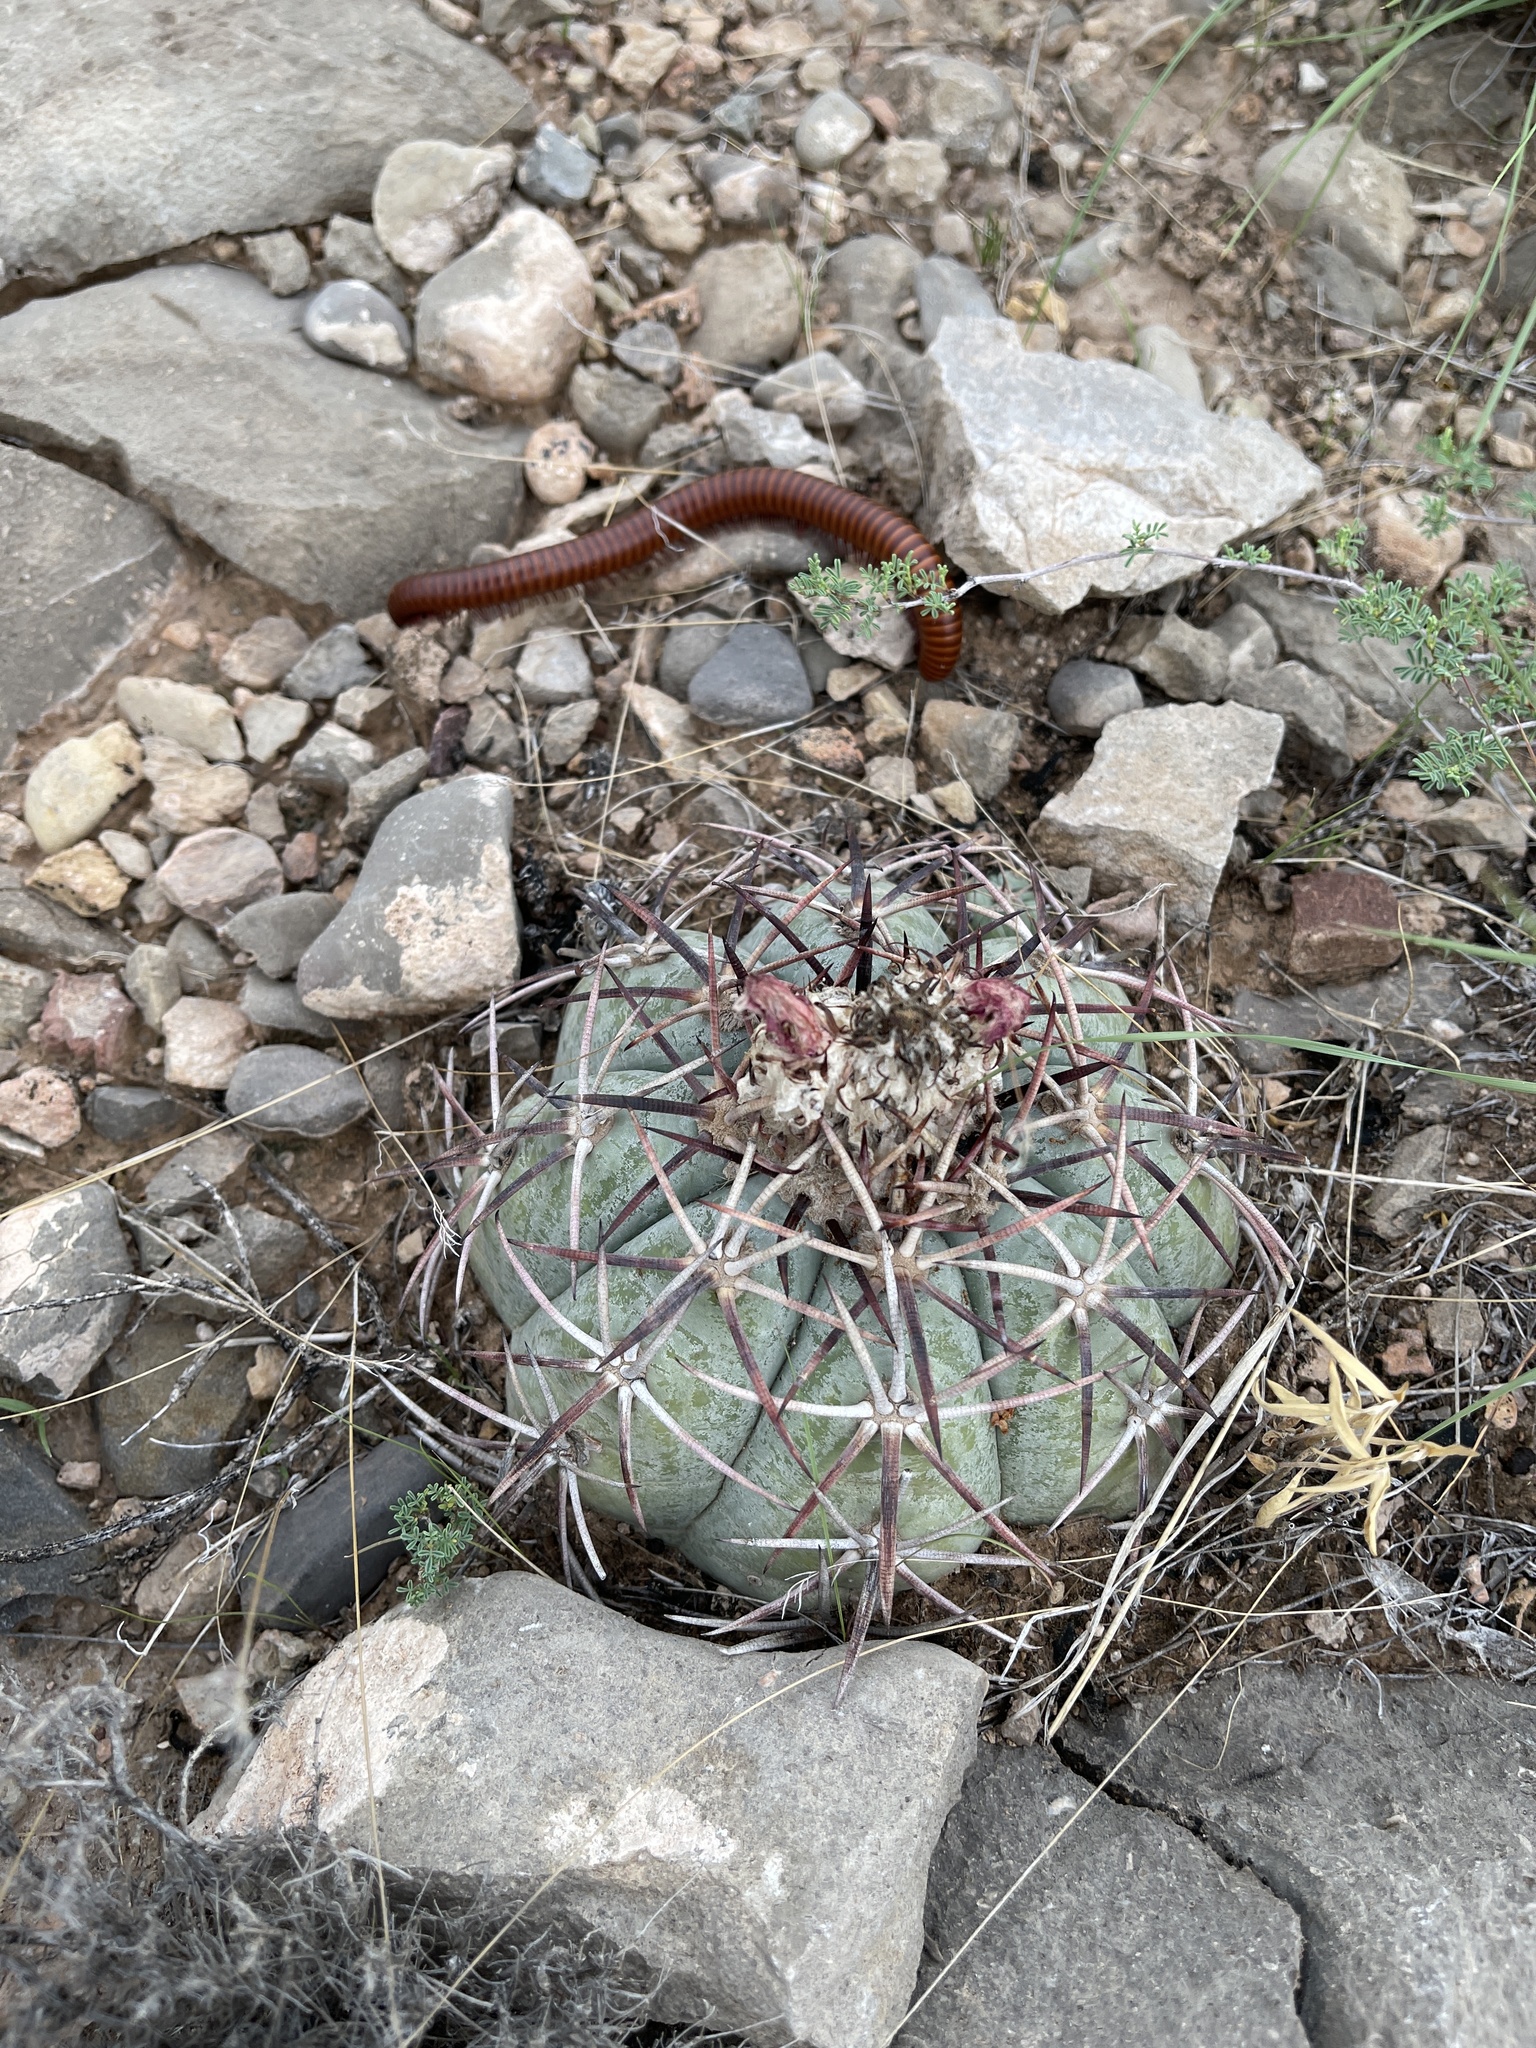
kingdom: Plantae
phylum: Tracheophyta
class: Magnoliopsida
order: Caryophyllales
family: Cactaceae
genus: Echinocactus
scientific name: Echinocactus horizonthalonius
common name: Devilshead
